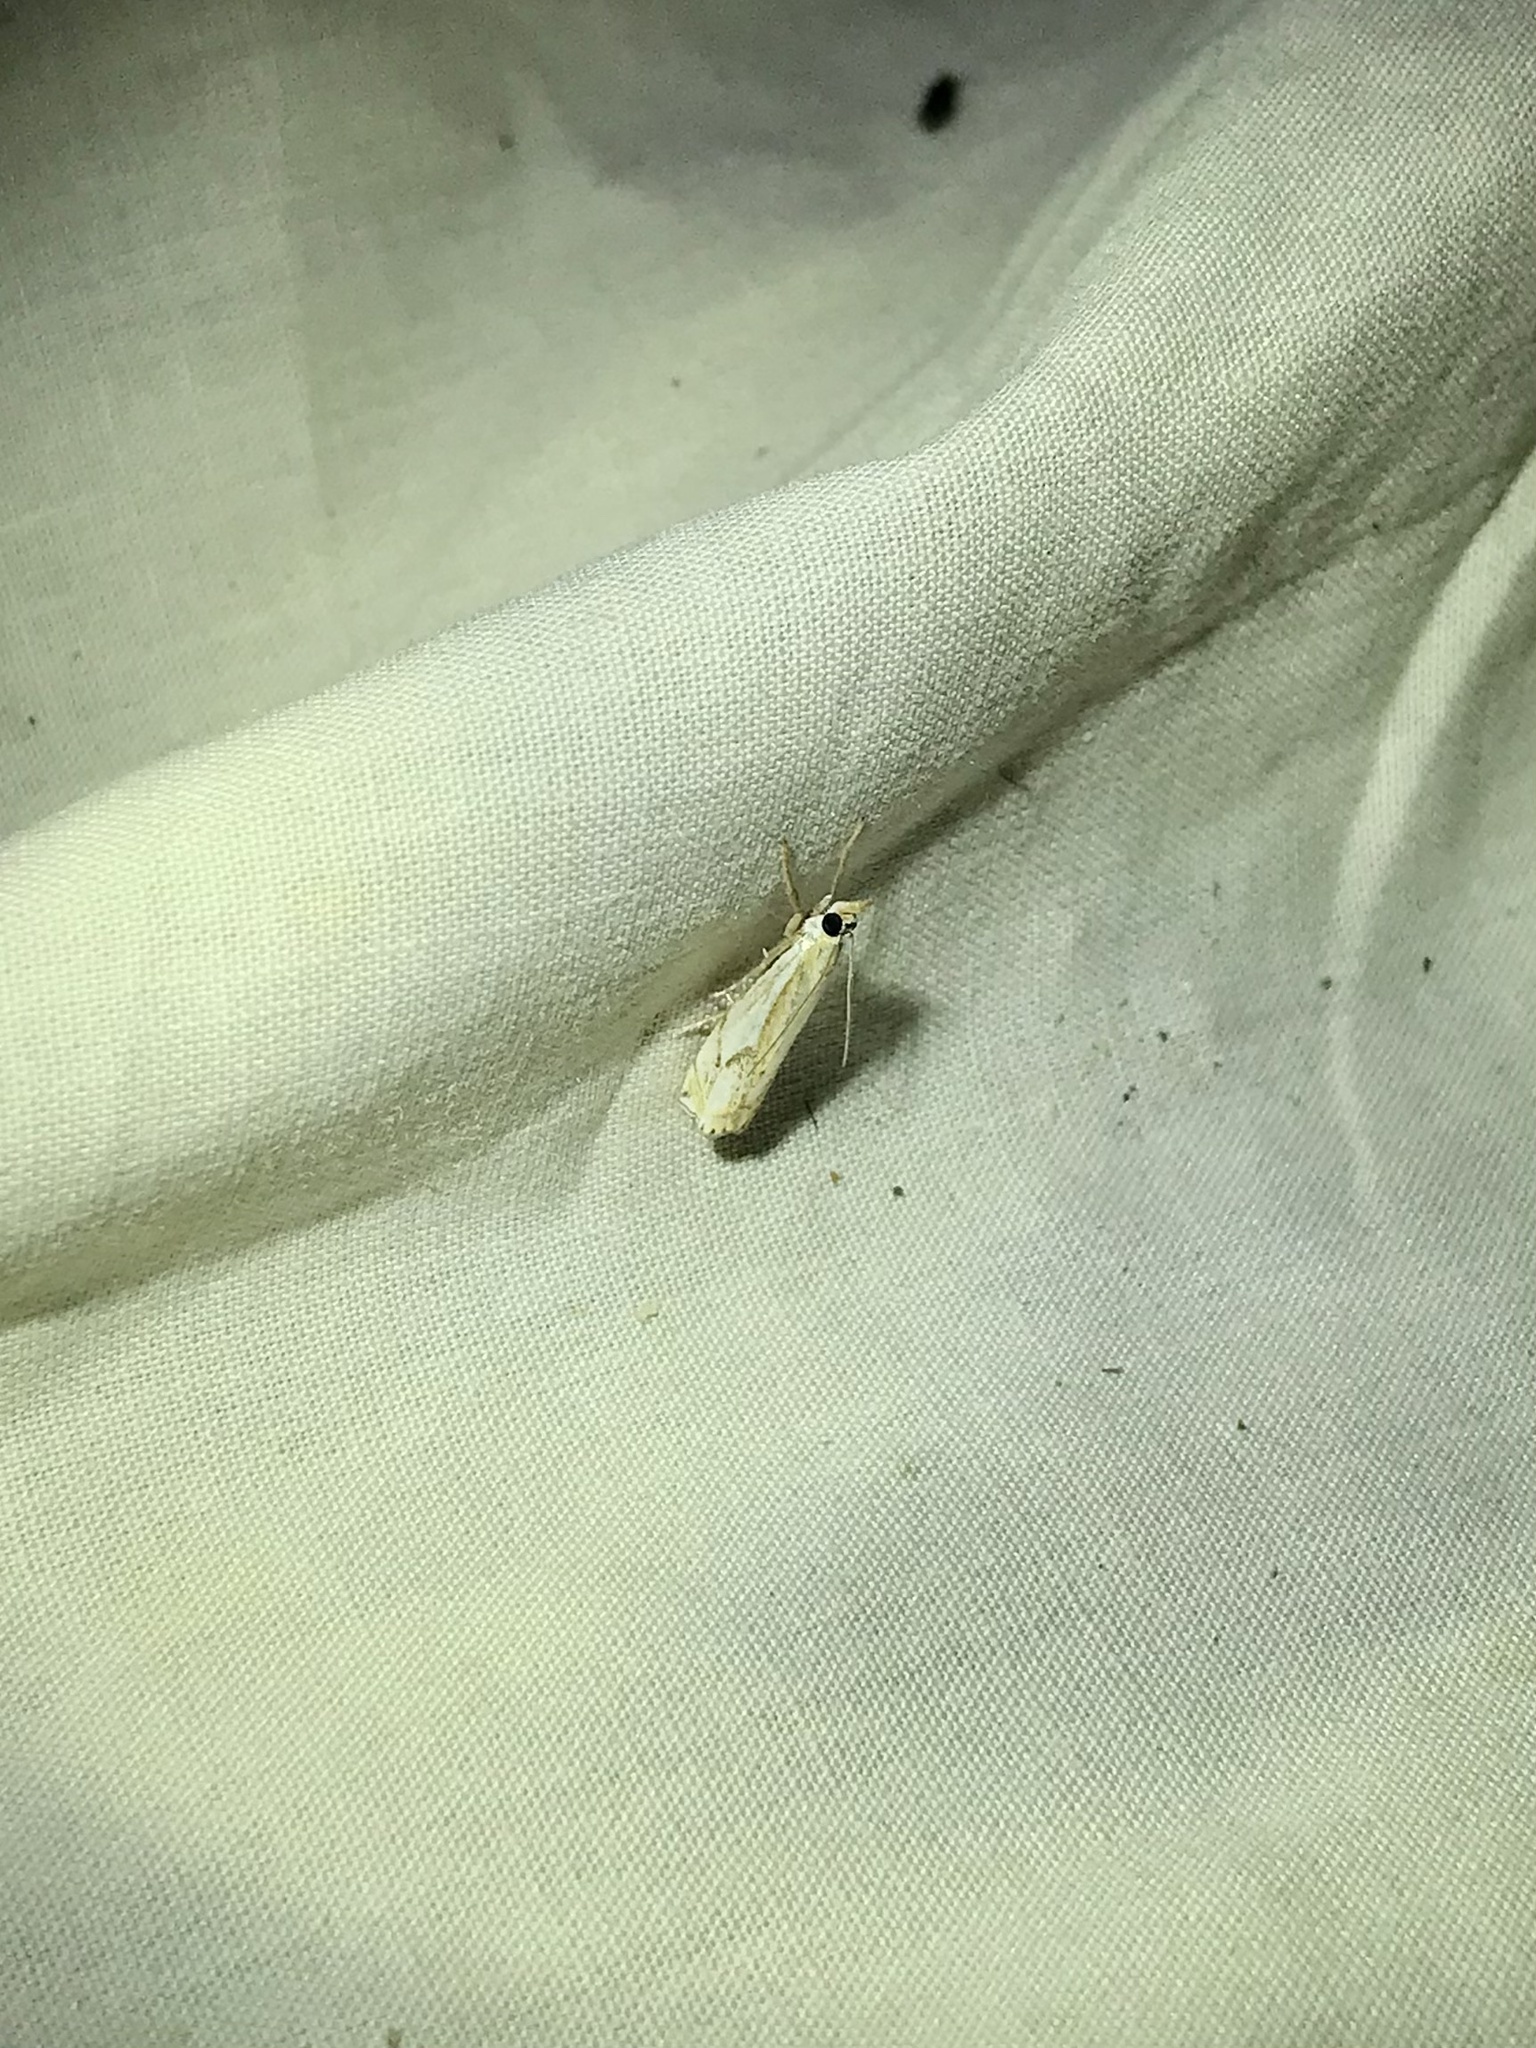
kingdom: Animalia
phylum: Arthropoda
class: Insecta
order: Lepidoptera
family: Crambidae
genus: Crambus
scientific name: Crambus agitatellus
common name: Double-banded grass-veneer
